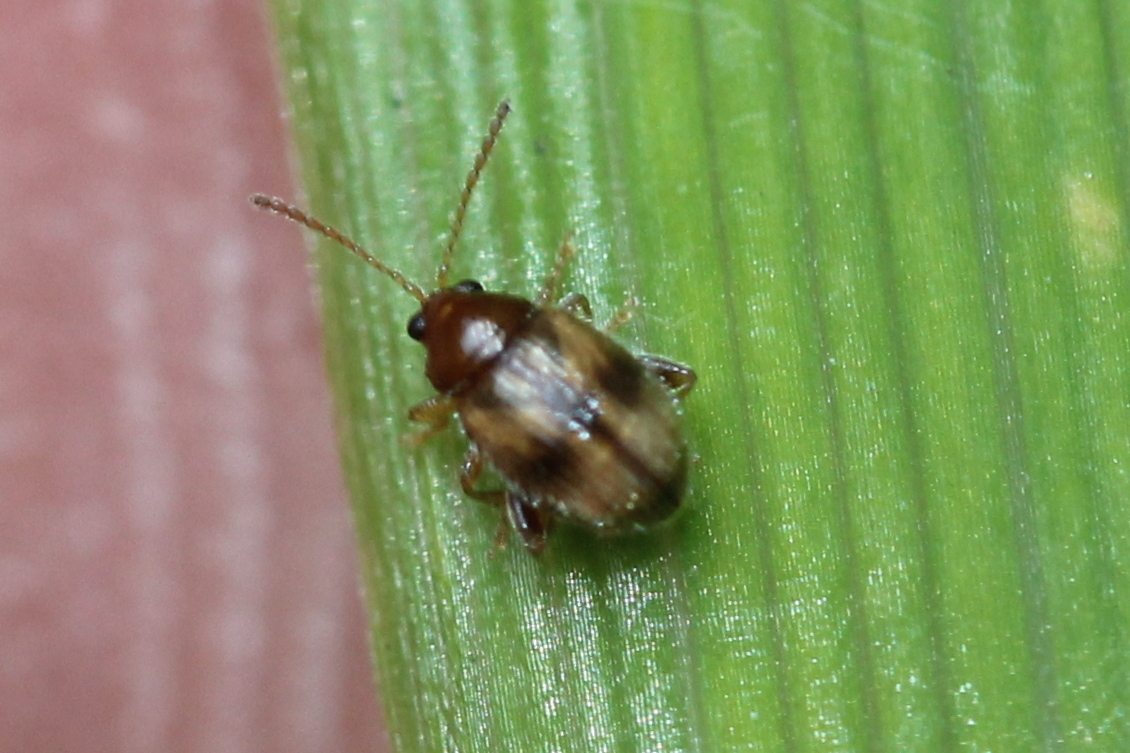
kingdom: Animalia
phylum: Arthropoda
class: Insecta
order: Coleoptera
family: Chrysomelidae
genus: Epitrix
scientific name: Epitrix fasciata
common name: Leaf beetle
